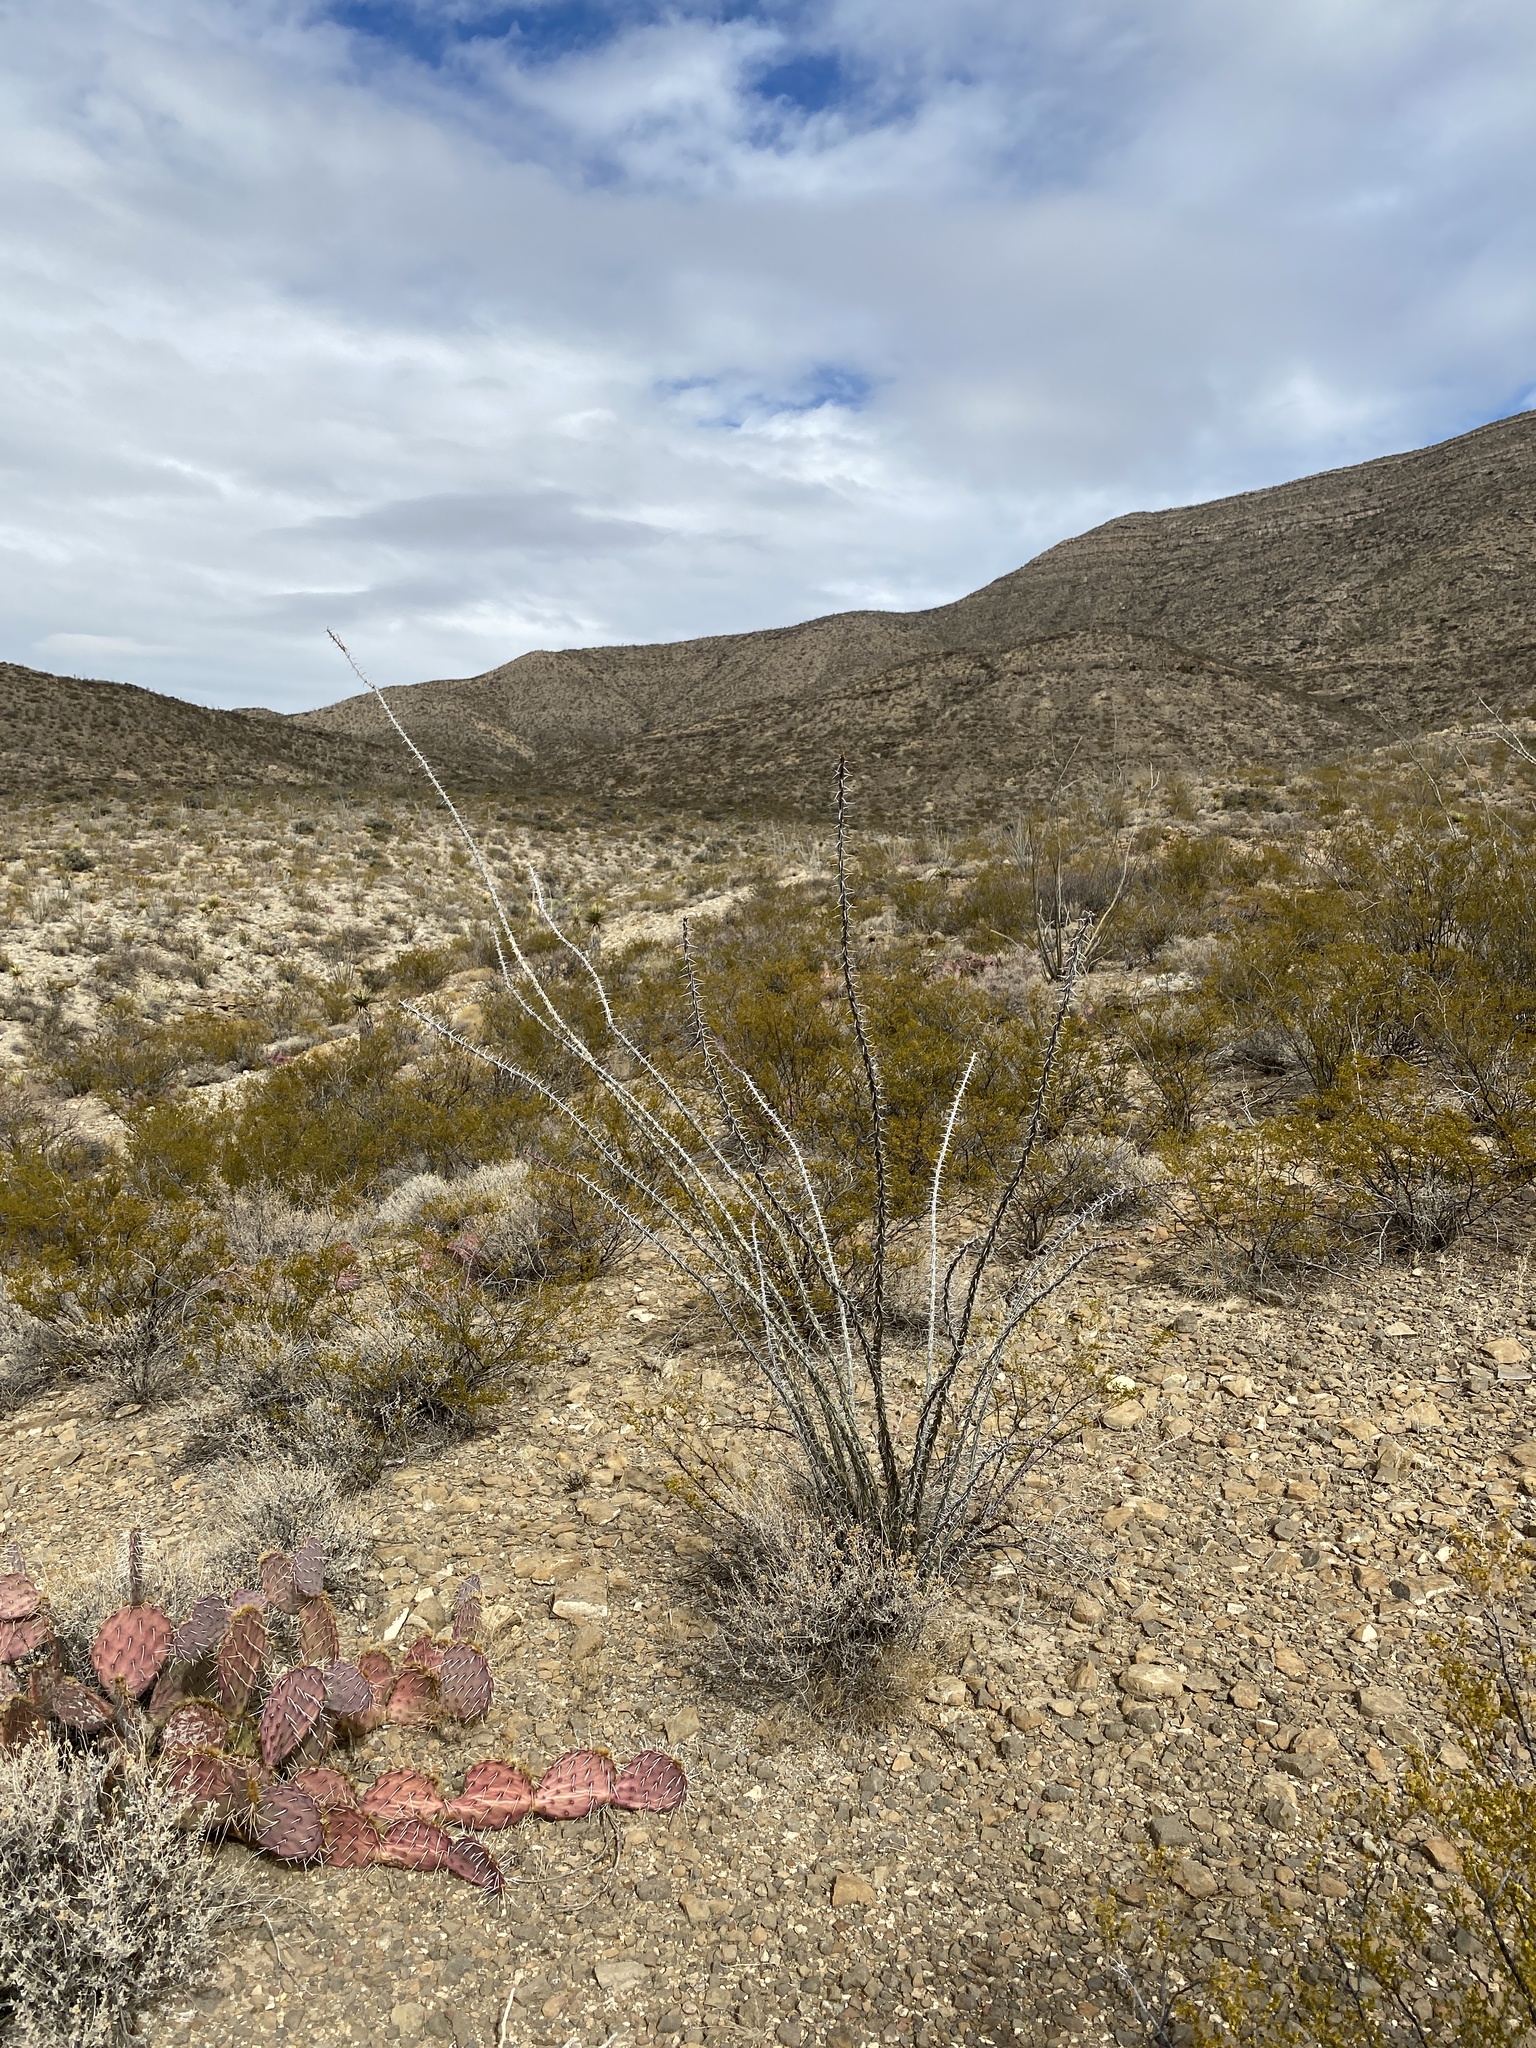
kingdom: Plantae
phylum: Tracheophyta
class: Magnoliopsida
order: Ericales
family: Fouquieriaceae
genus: Fouquieria
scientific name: Fouquieria splendens
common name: Vine-cactus
